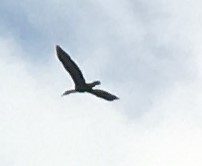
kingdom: Animalia
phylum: Chordata
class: Aves
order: Suliformes
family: Phalacrocoracidae
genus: Phalacrocorax
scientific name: Phalacrocorax auritus
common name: Double-crested cormorant
